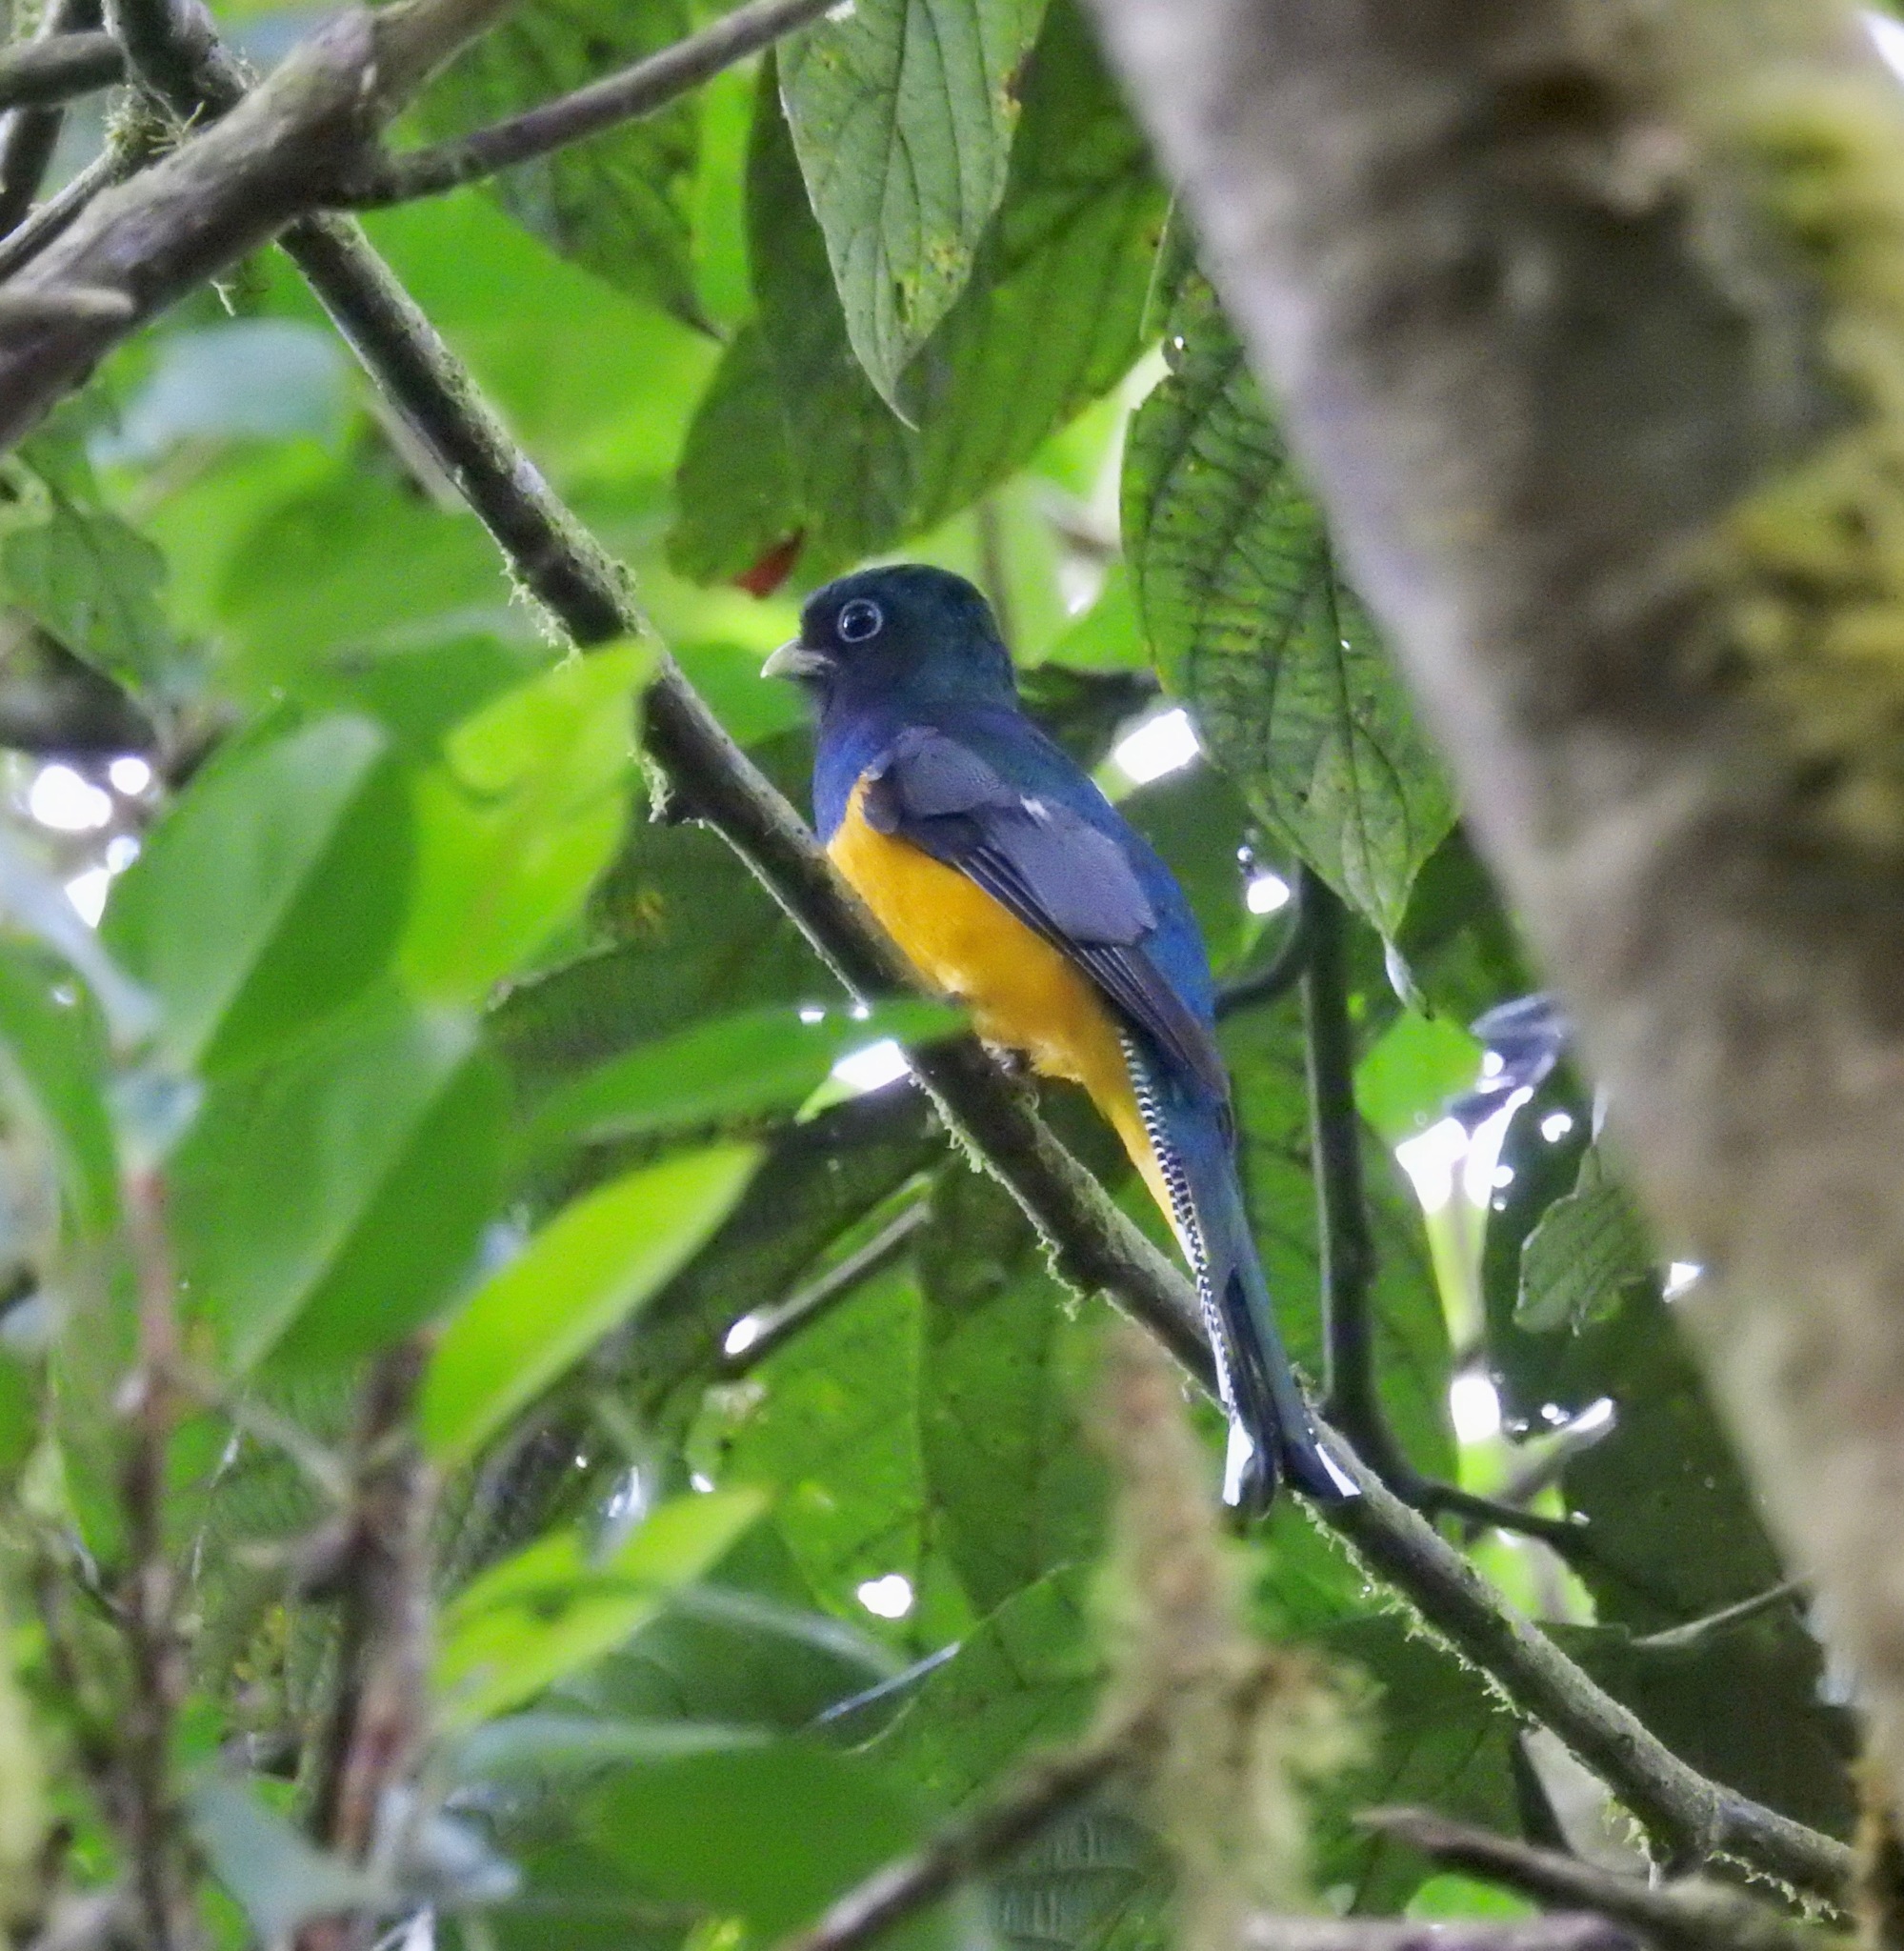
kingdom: Animalia
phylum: Chordata
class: Aves
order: Trogoniformes
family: Trogonidae
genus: Trogon
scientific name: Trogon viridis
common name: Green-backed trogon
